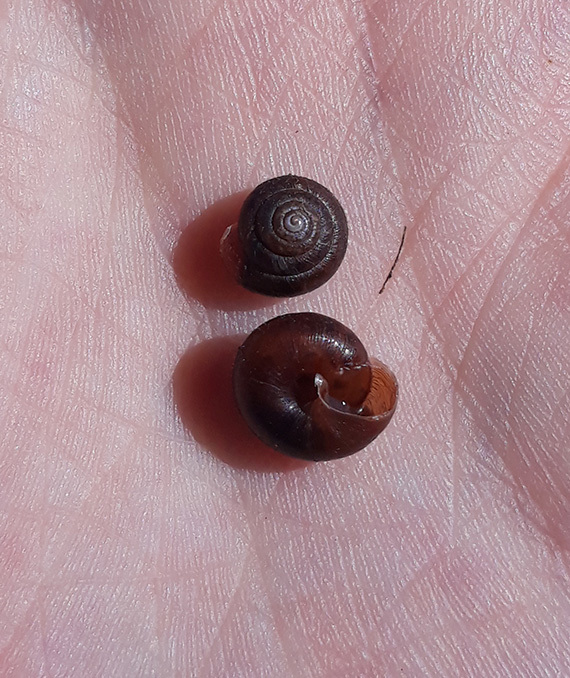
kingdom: Animalia
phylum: Mollusca
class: Gastropoda
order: Stylommatophora
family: Hygromiidae
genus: Trochulus
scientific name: Trochulus hispidus
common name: Hairy snail
